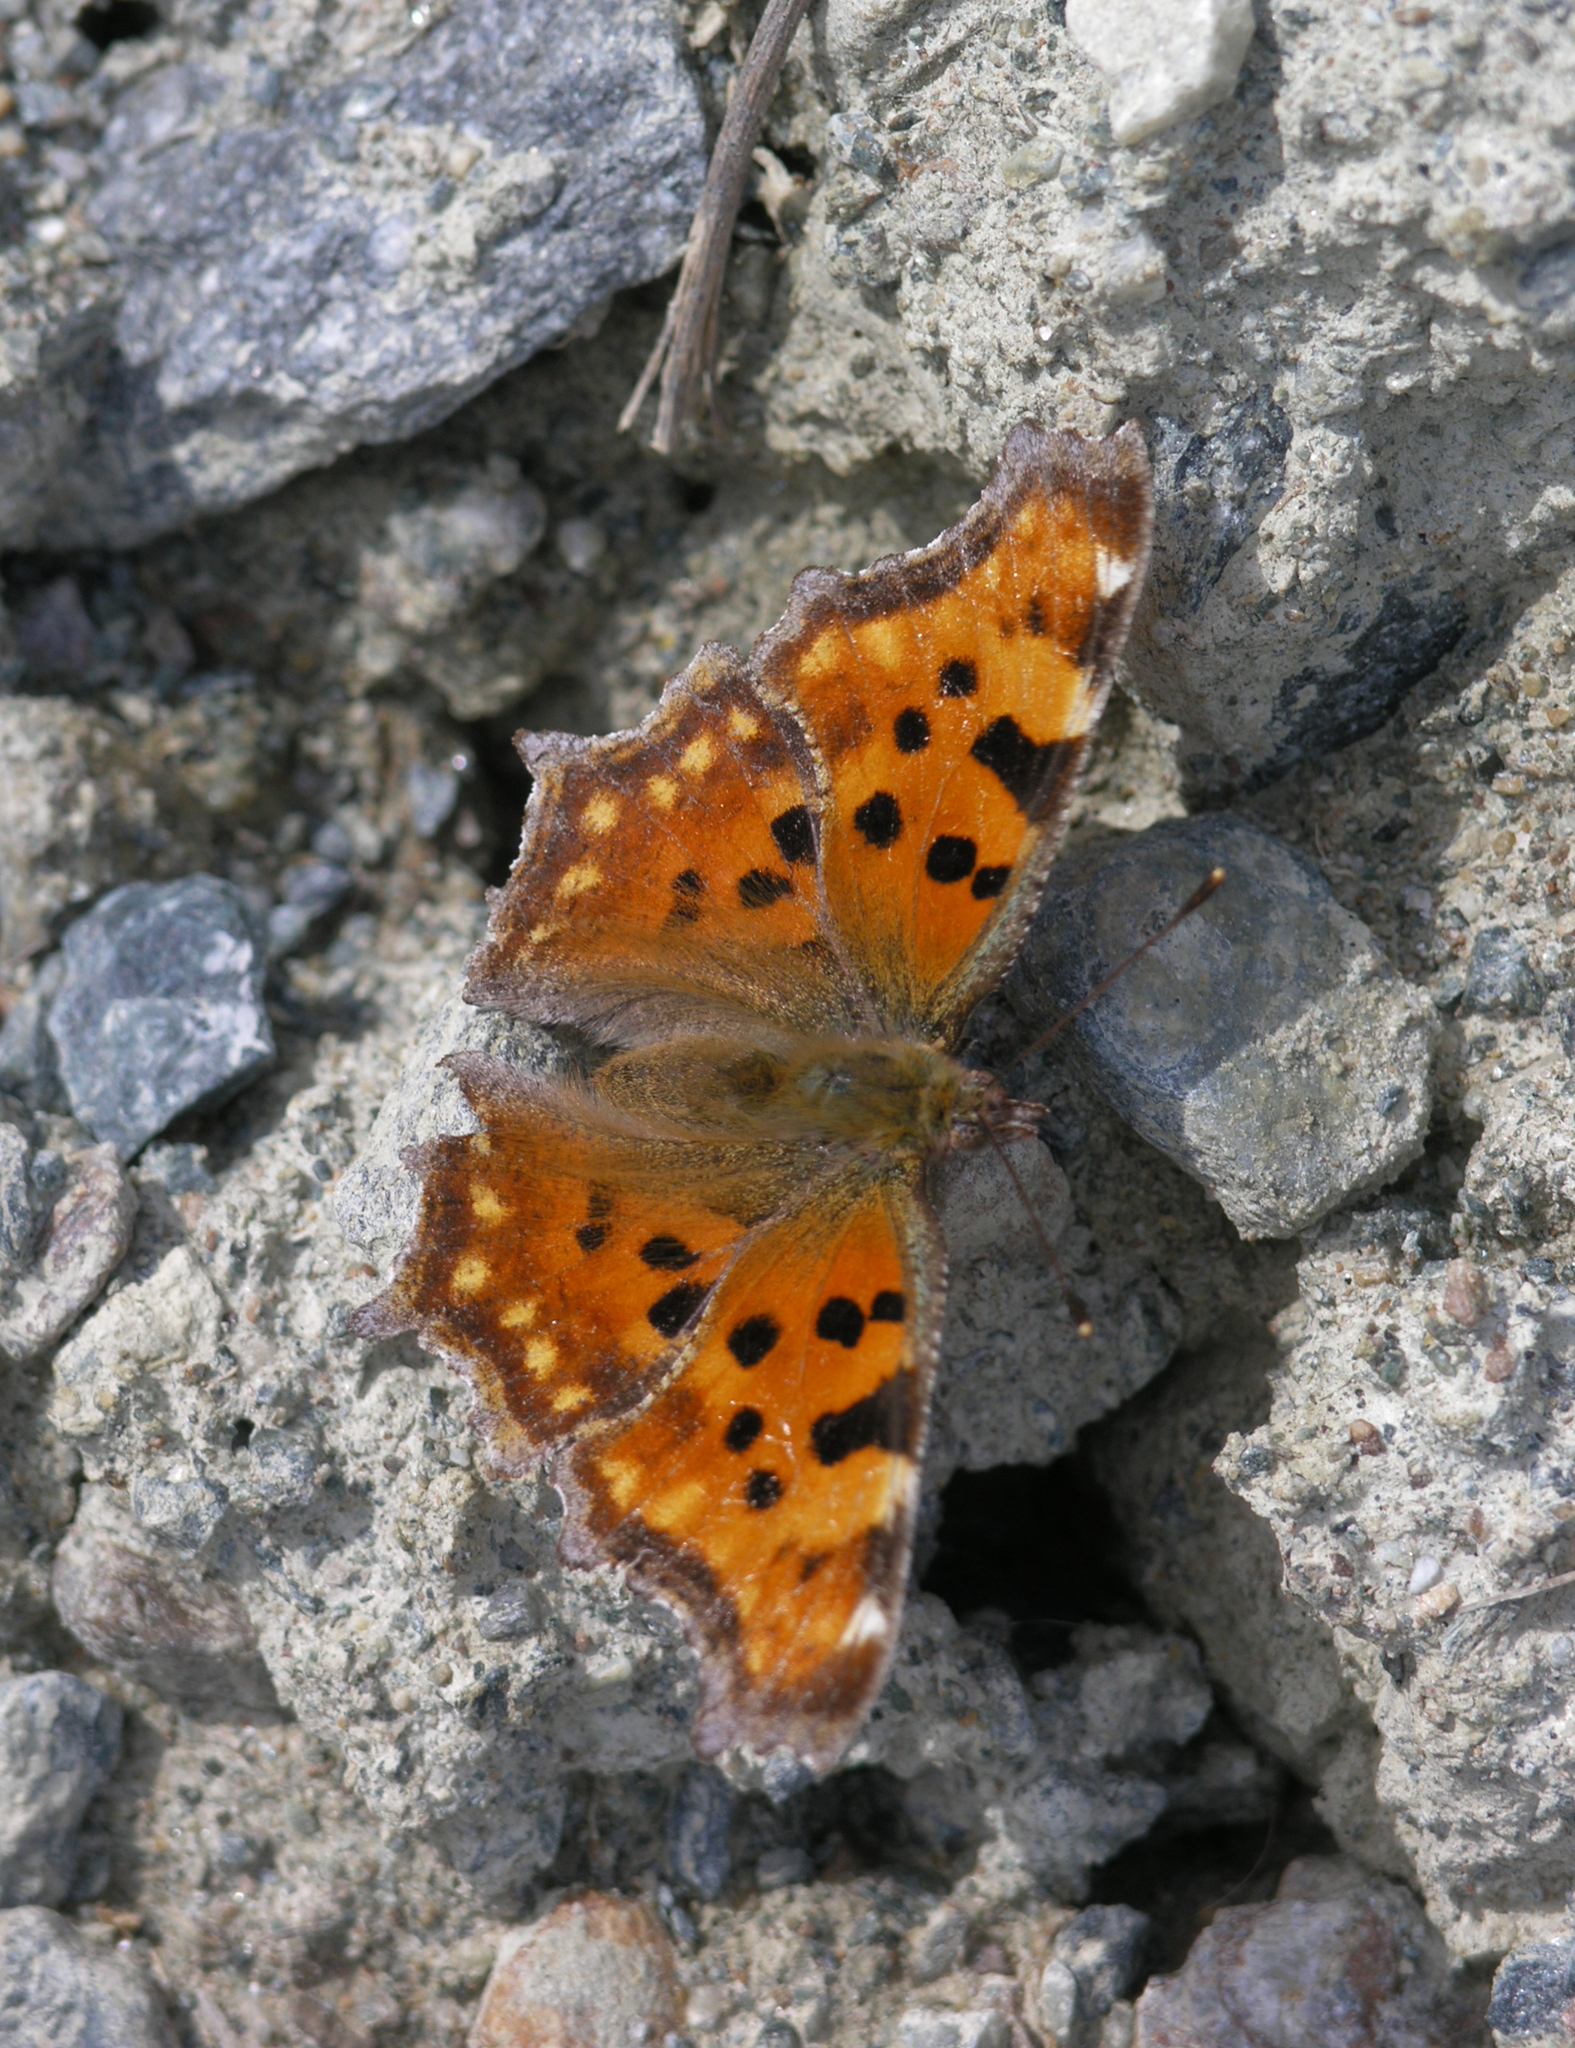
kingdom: Animalia
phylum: Arthropoda
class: Insecta
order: Lepidoptera
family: Nymphalidae
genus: Polygonia
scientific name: Polygonia c-album
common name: Comma
